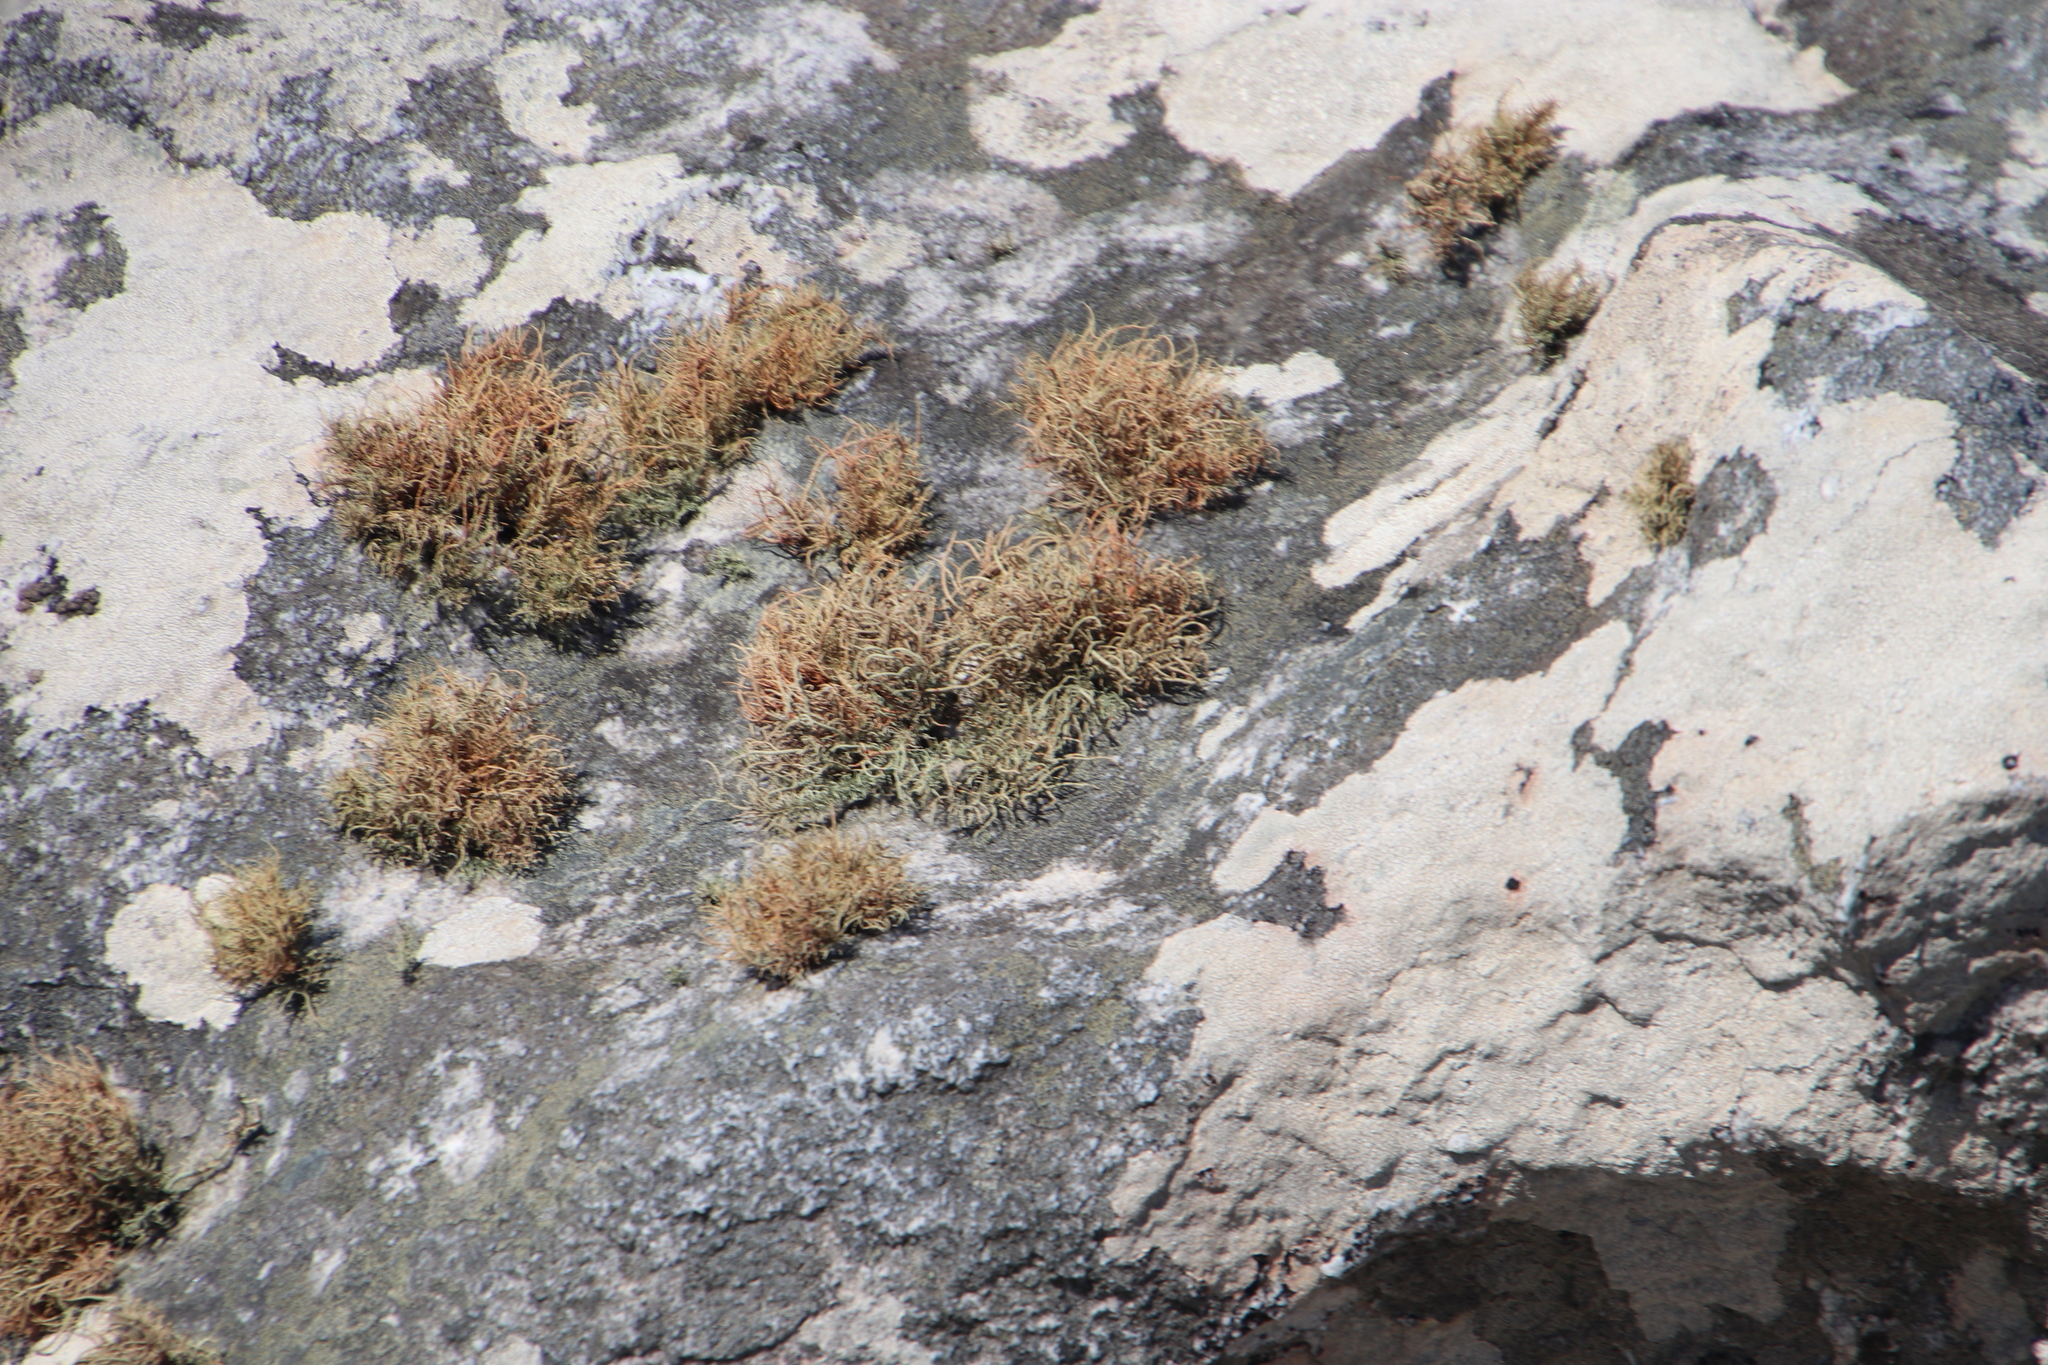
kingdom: Fungi
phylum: Ascomycota
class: Lecanoromycetes
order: Lecanorales
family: Parmeliaceae
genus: Usnea
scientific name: Usnea maculata
